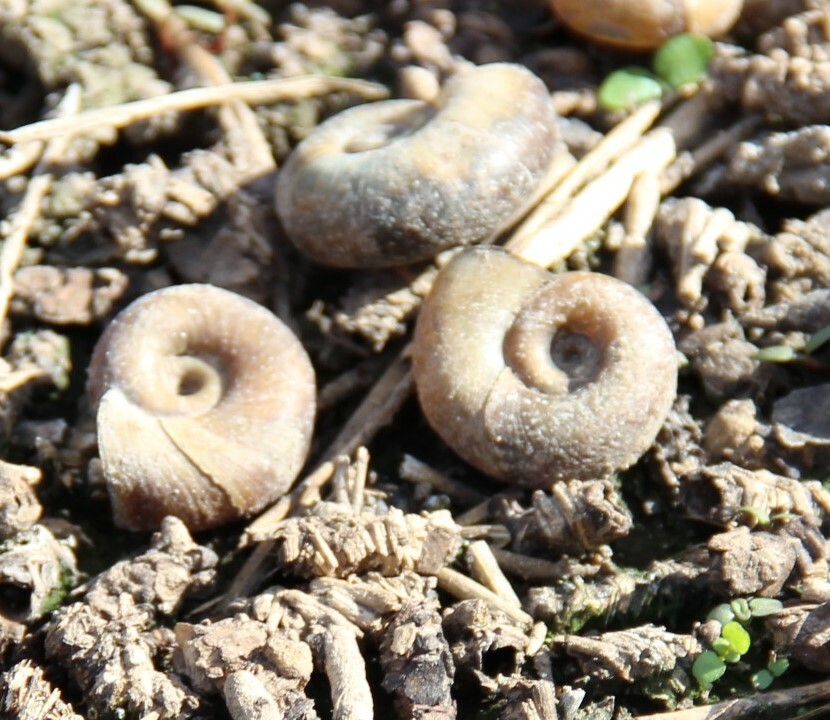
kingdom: Animalia
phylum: Mollusca
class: Gastropoda
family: Planorbidae
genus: Planorbarius
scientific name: Planorbarius corneus
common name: Great ramshorn
